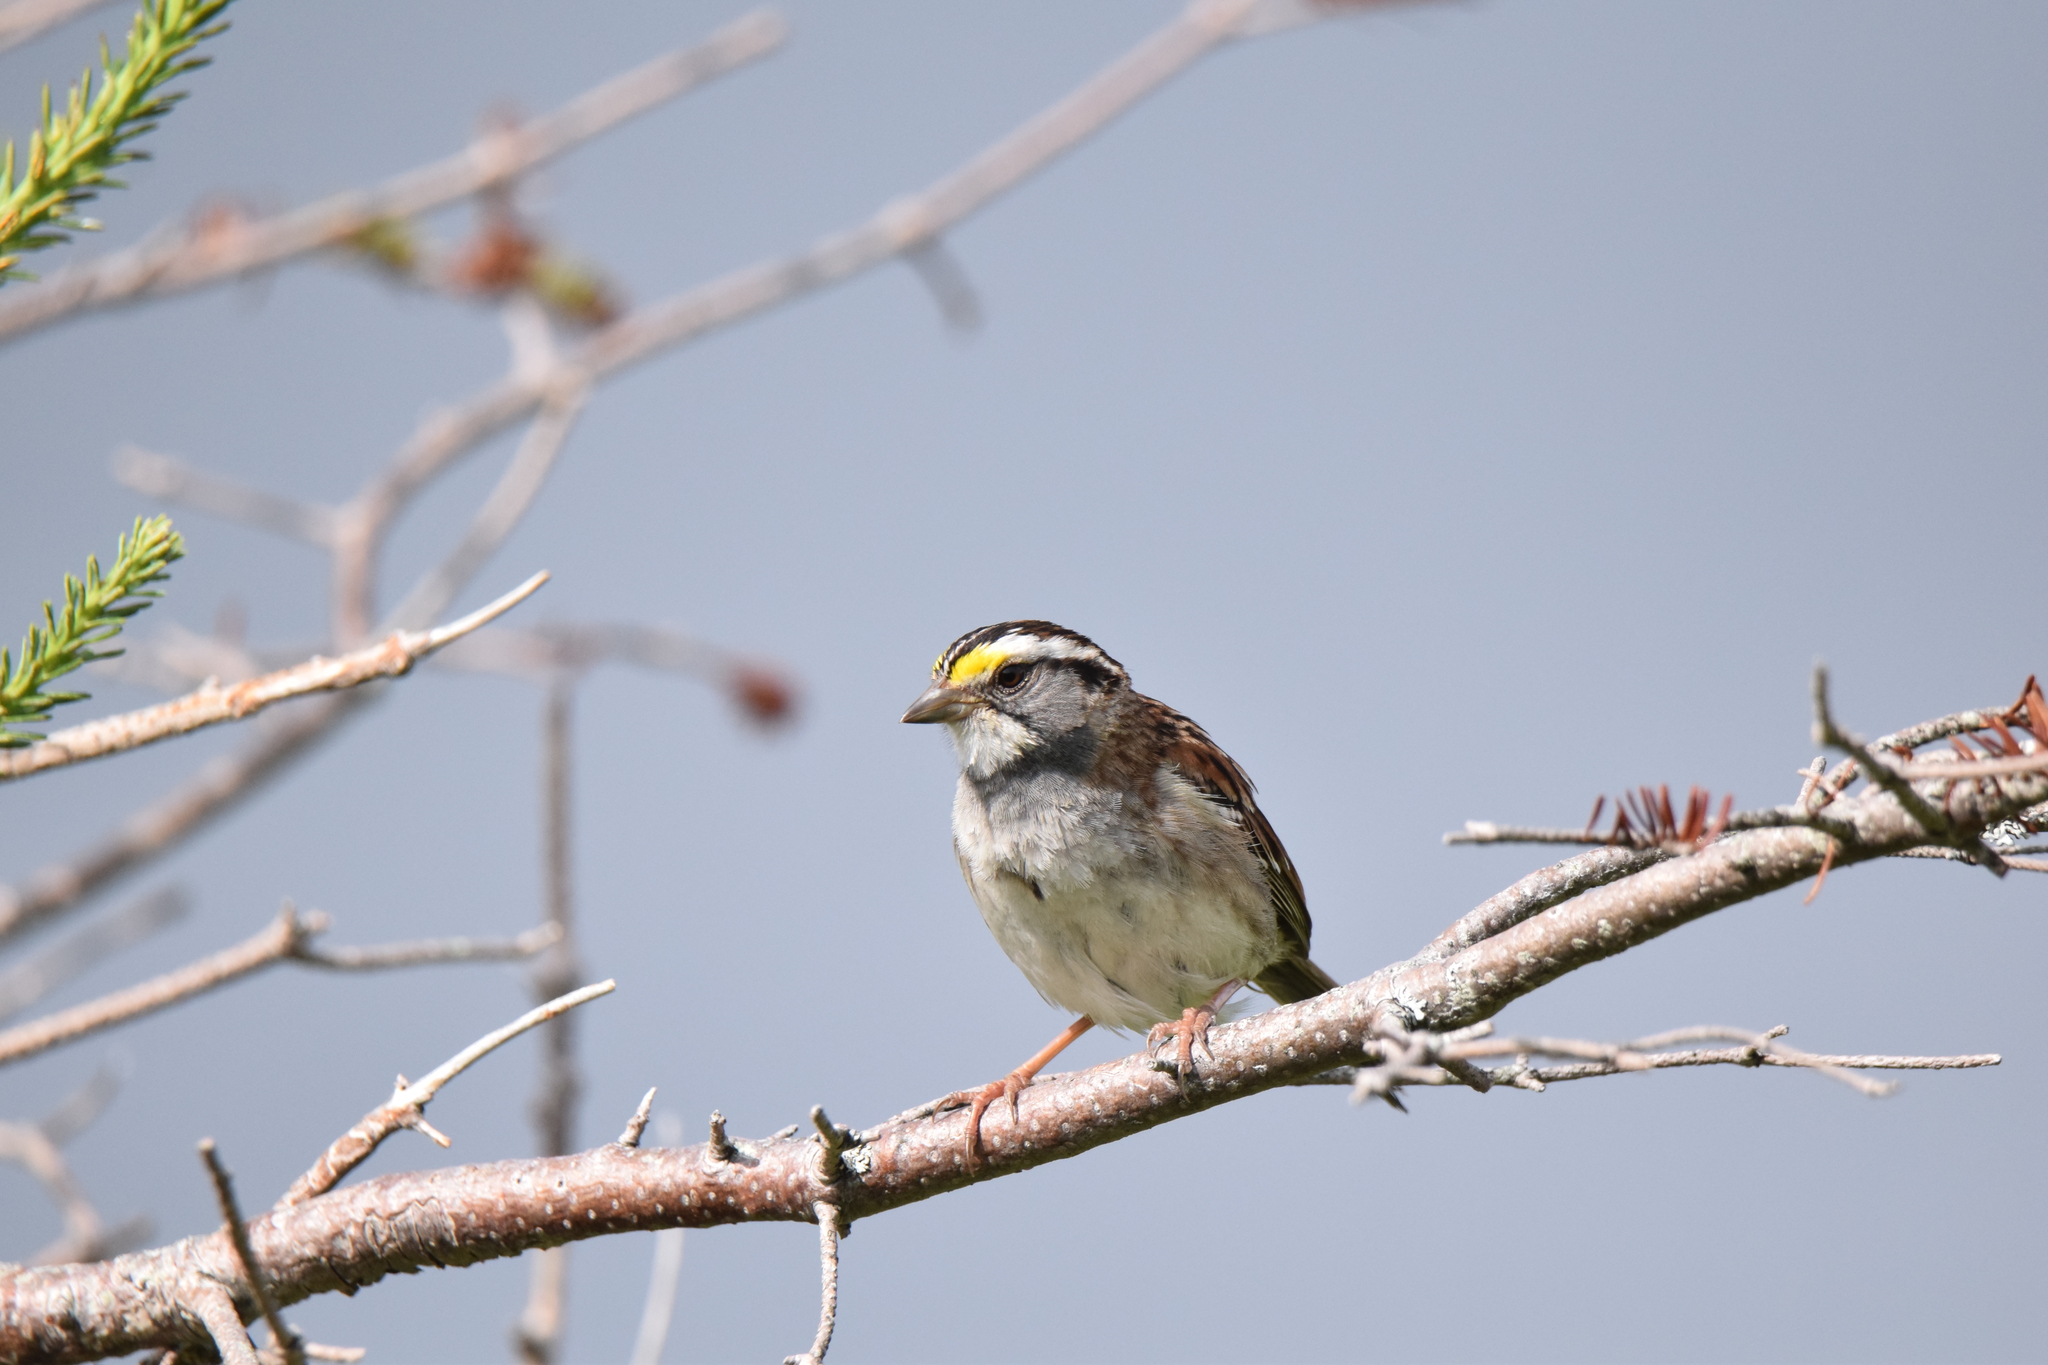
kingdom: Animalia
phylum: Chordata
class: Aves
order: Passeriformes
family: Passerellidae
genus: Zonotrichia
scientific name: Zonotrichia albicollis
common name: White-throated sparrow
